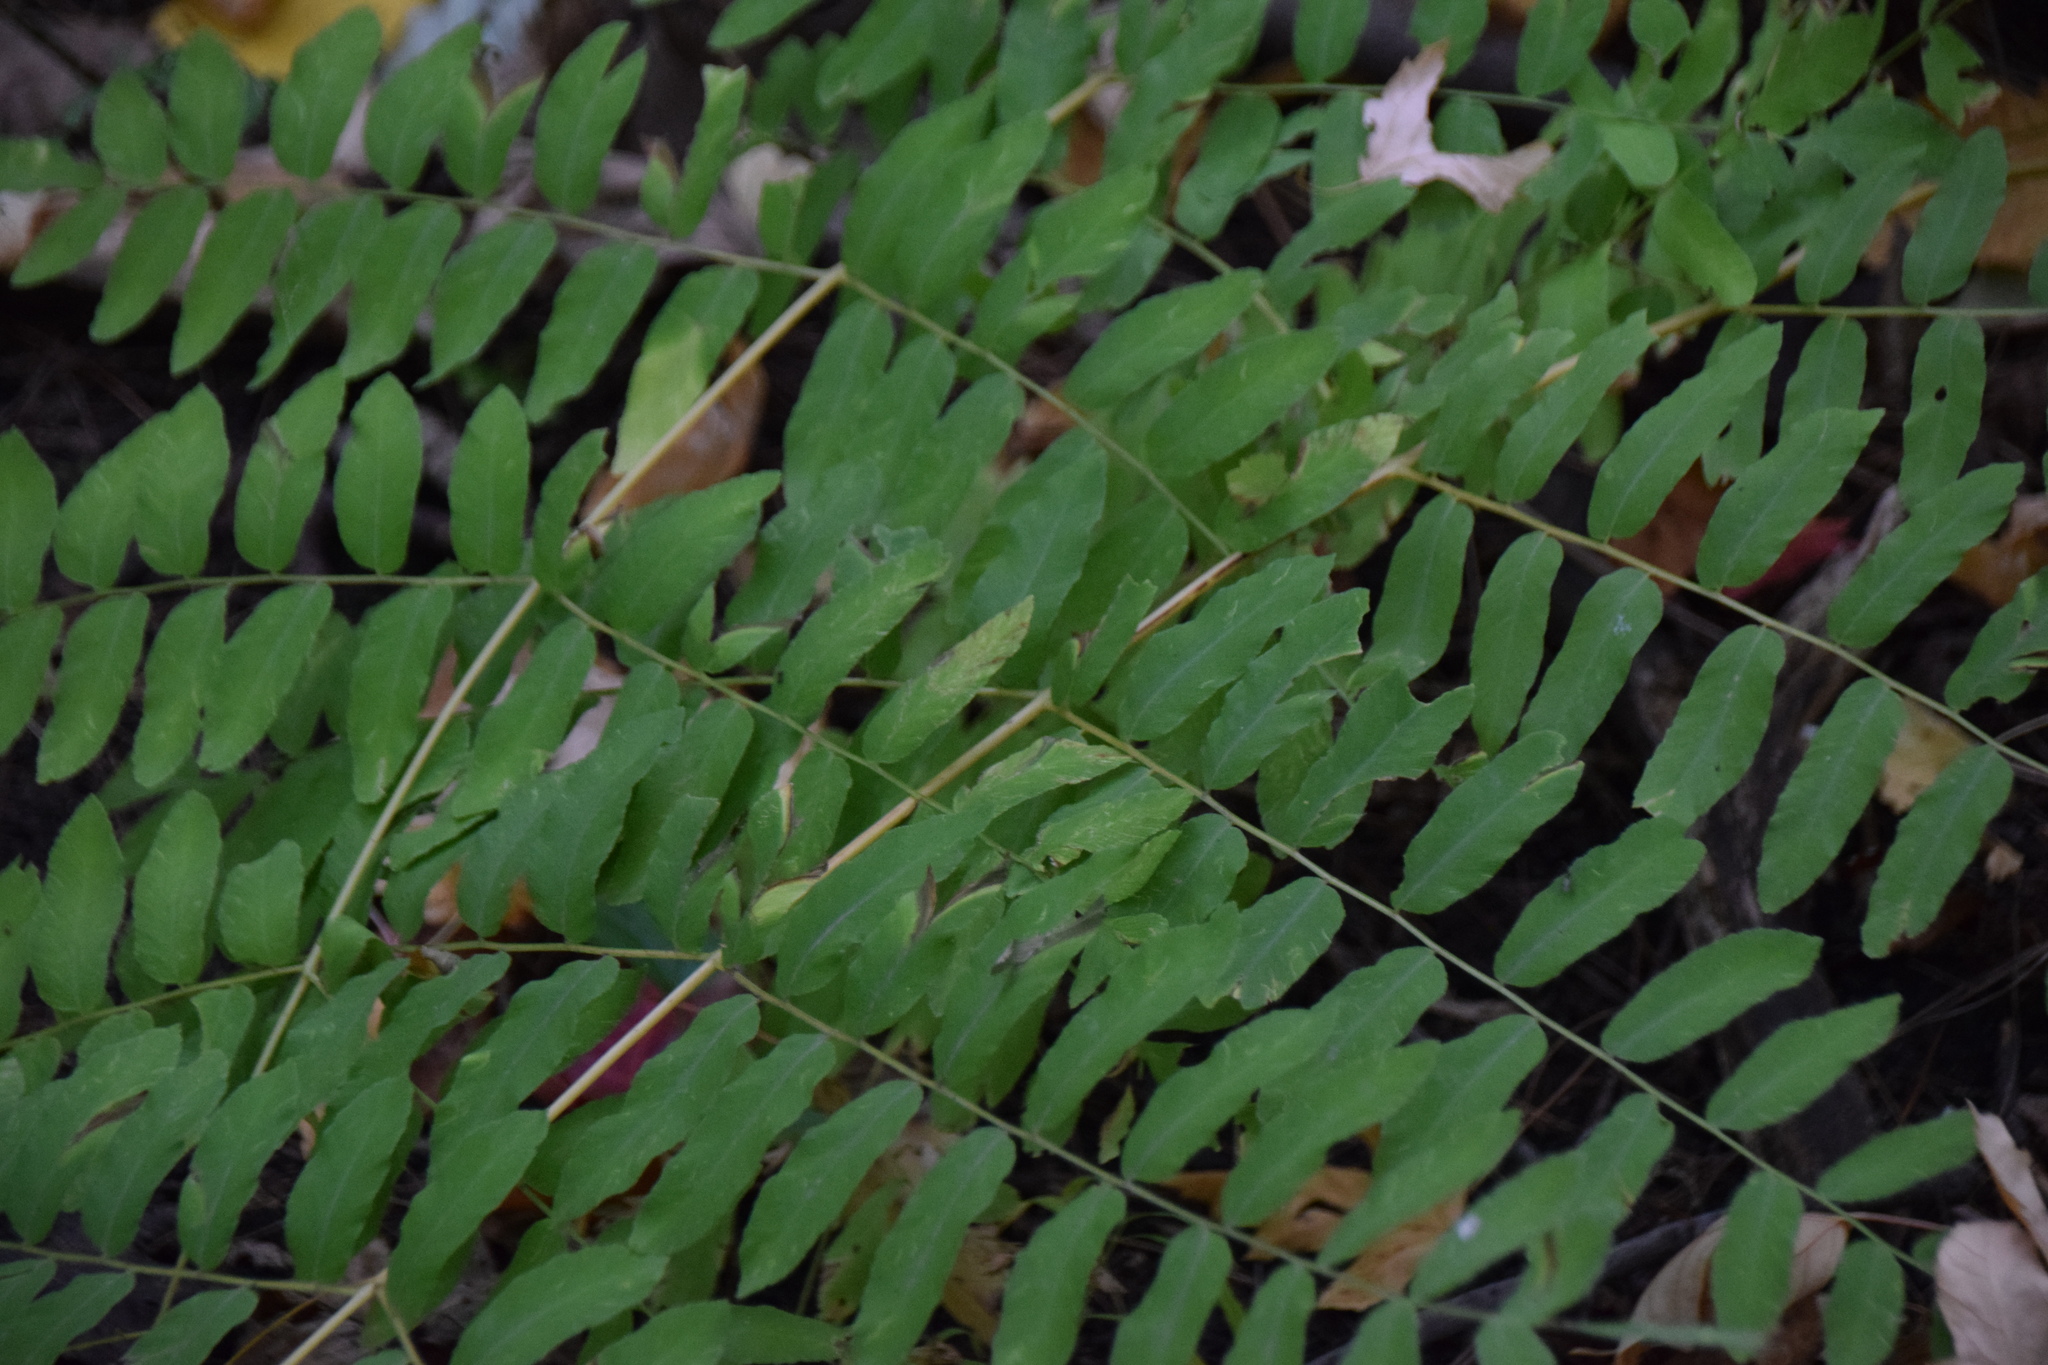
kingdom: Plantae
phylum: Tracheophyta
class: Polypodiopsida
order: Osmundales
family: Osmundaceae
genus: Osmunda
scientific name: Osmunda spectabilis
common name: American royal fern
